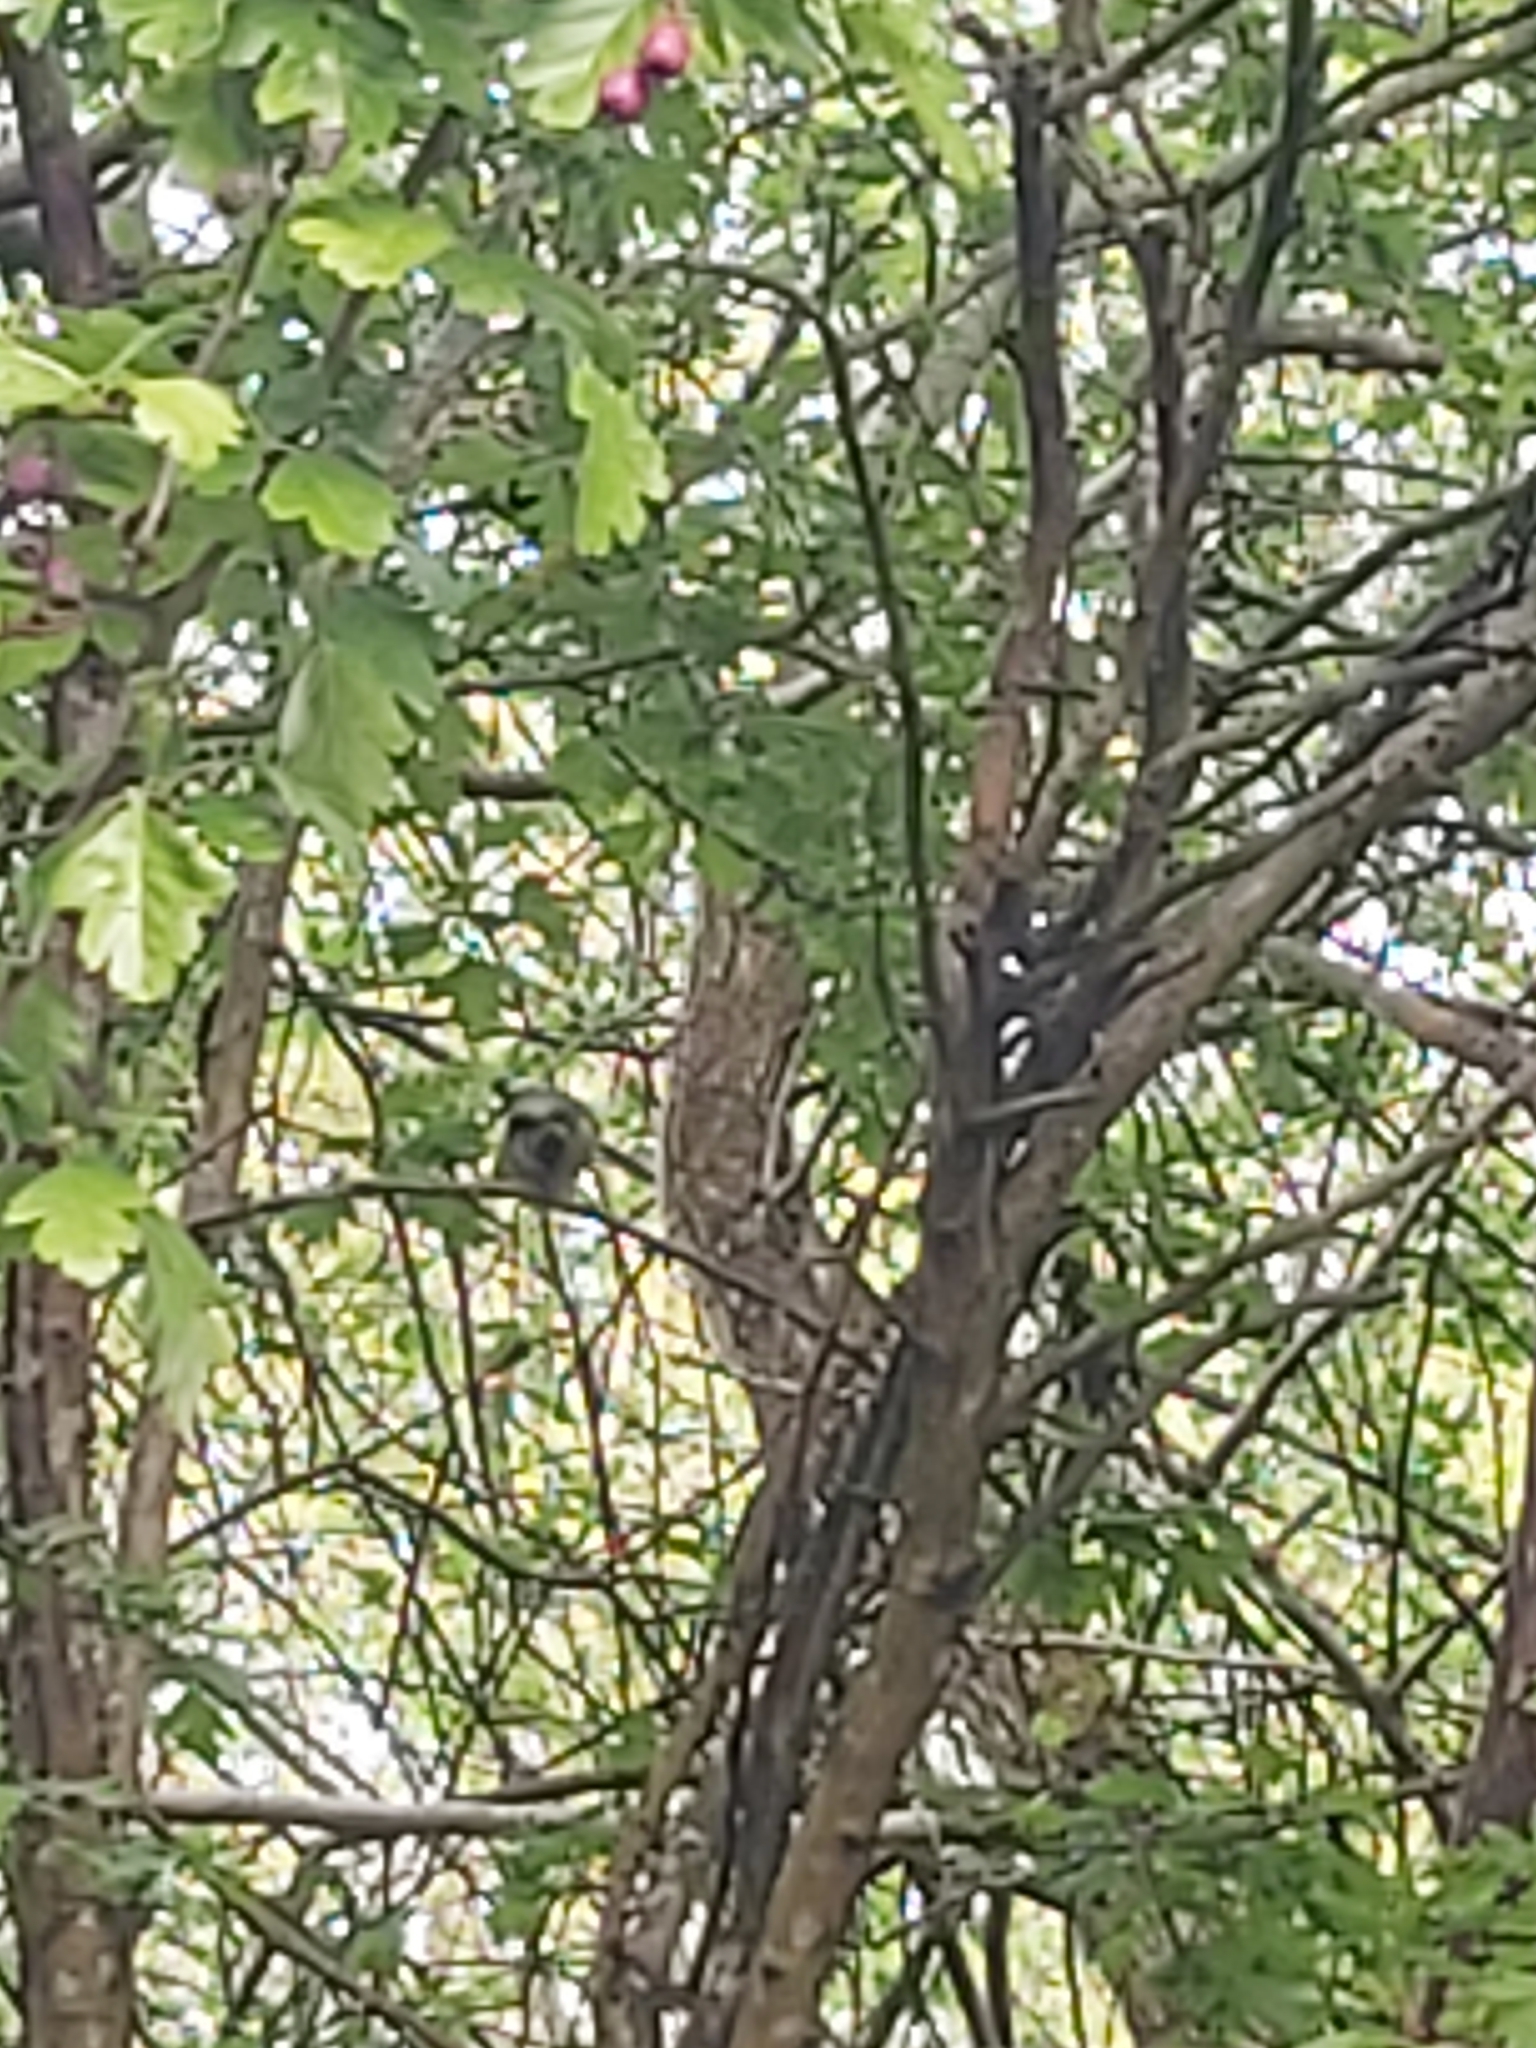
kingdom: Animalia
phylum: Chordata
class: Aves
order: Passeriformes
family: Paridae
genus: Cyanistes
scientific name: Cyanistes caeruleus
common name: Eurasian blue tit
